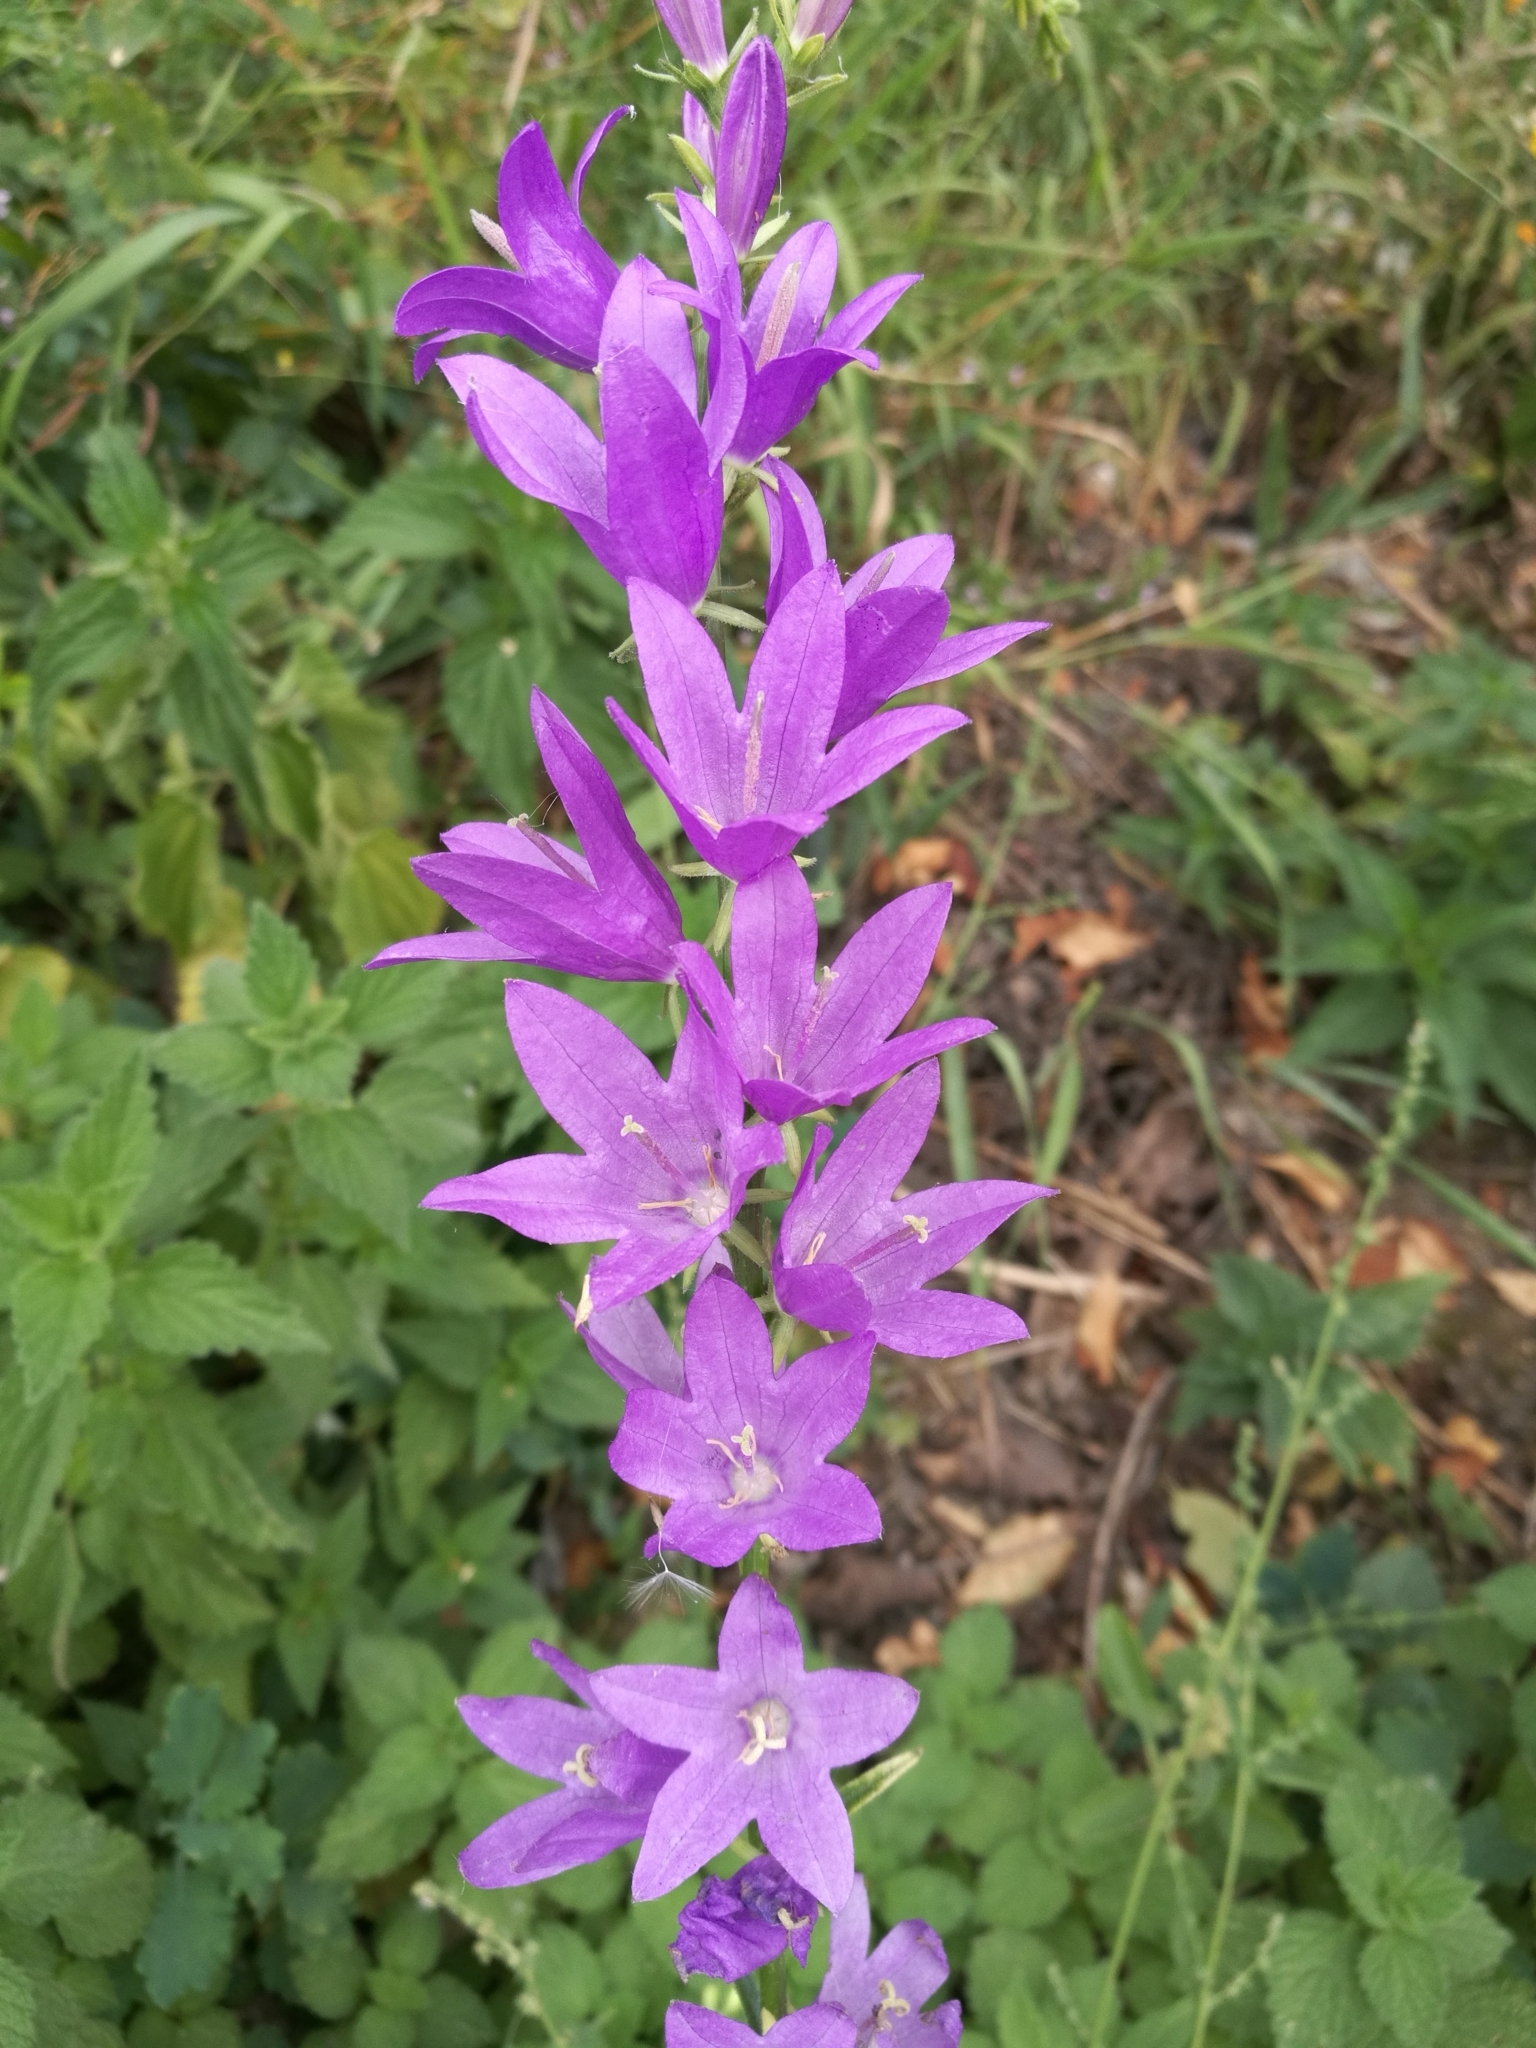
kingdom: Plantae
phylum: Tracheophyta
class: Magnoliopsida
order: Asterales
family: Campanulaceae
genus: Campanula
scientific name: Campanula rapunculus
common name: Rampion bellflower
